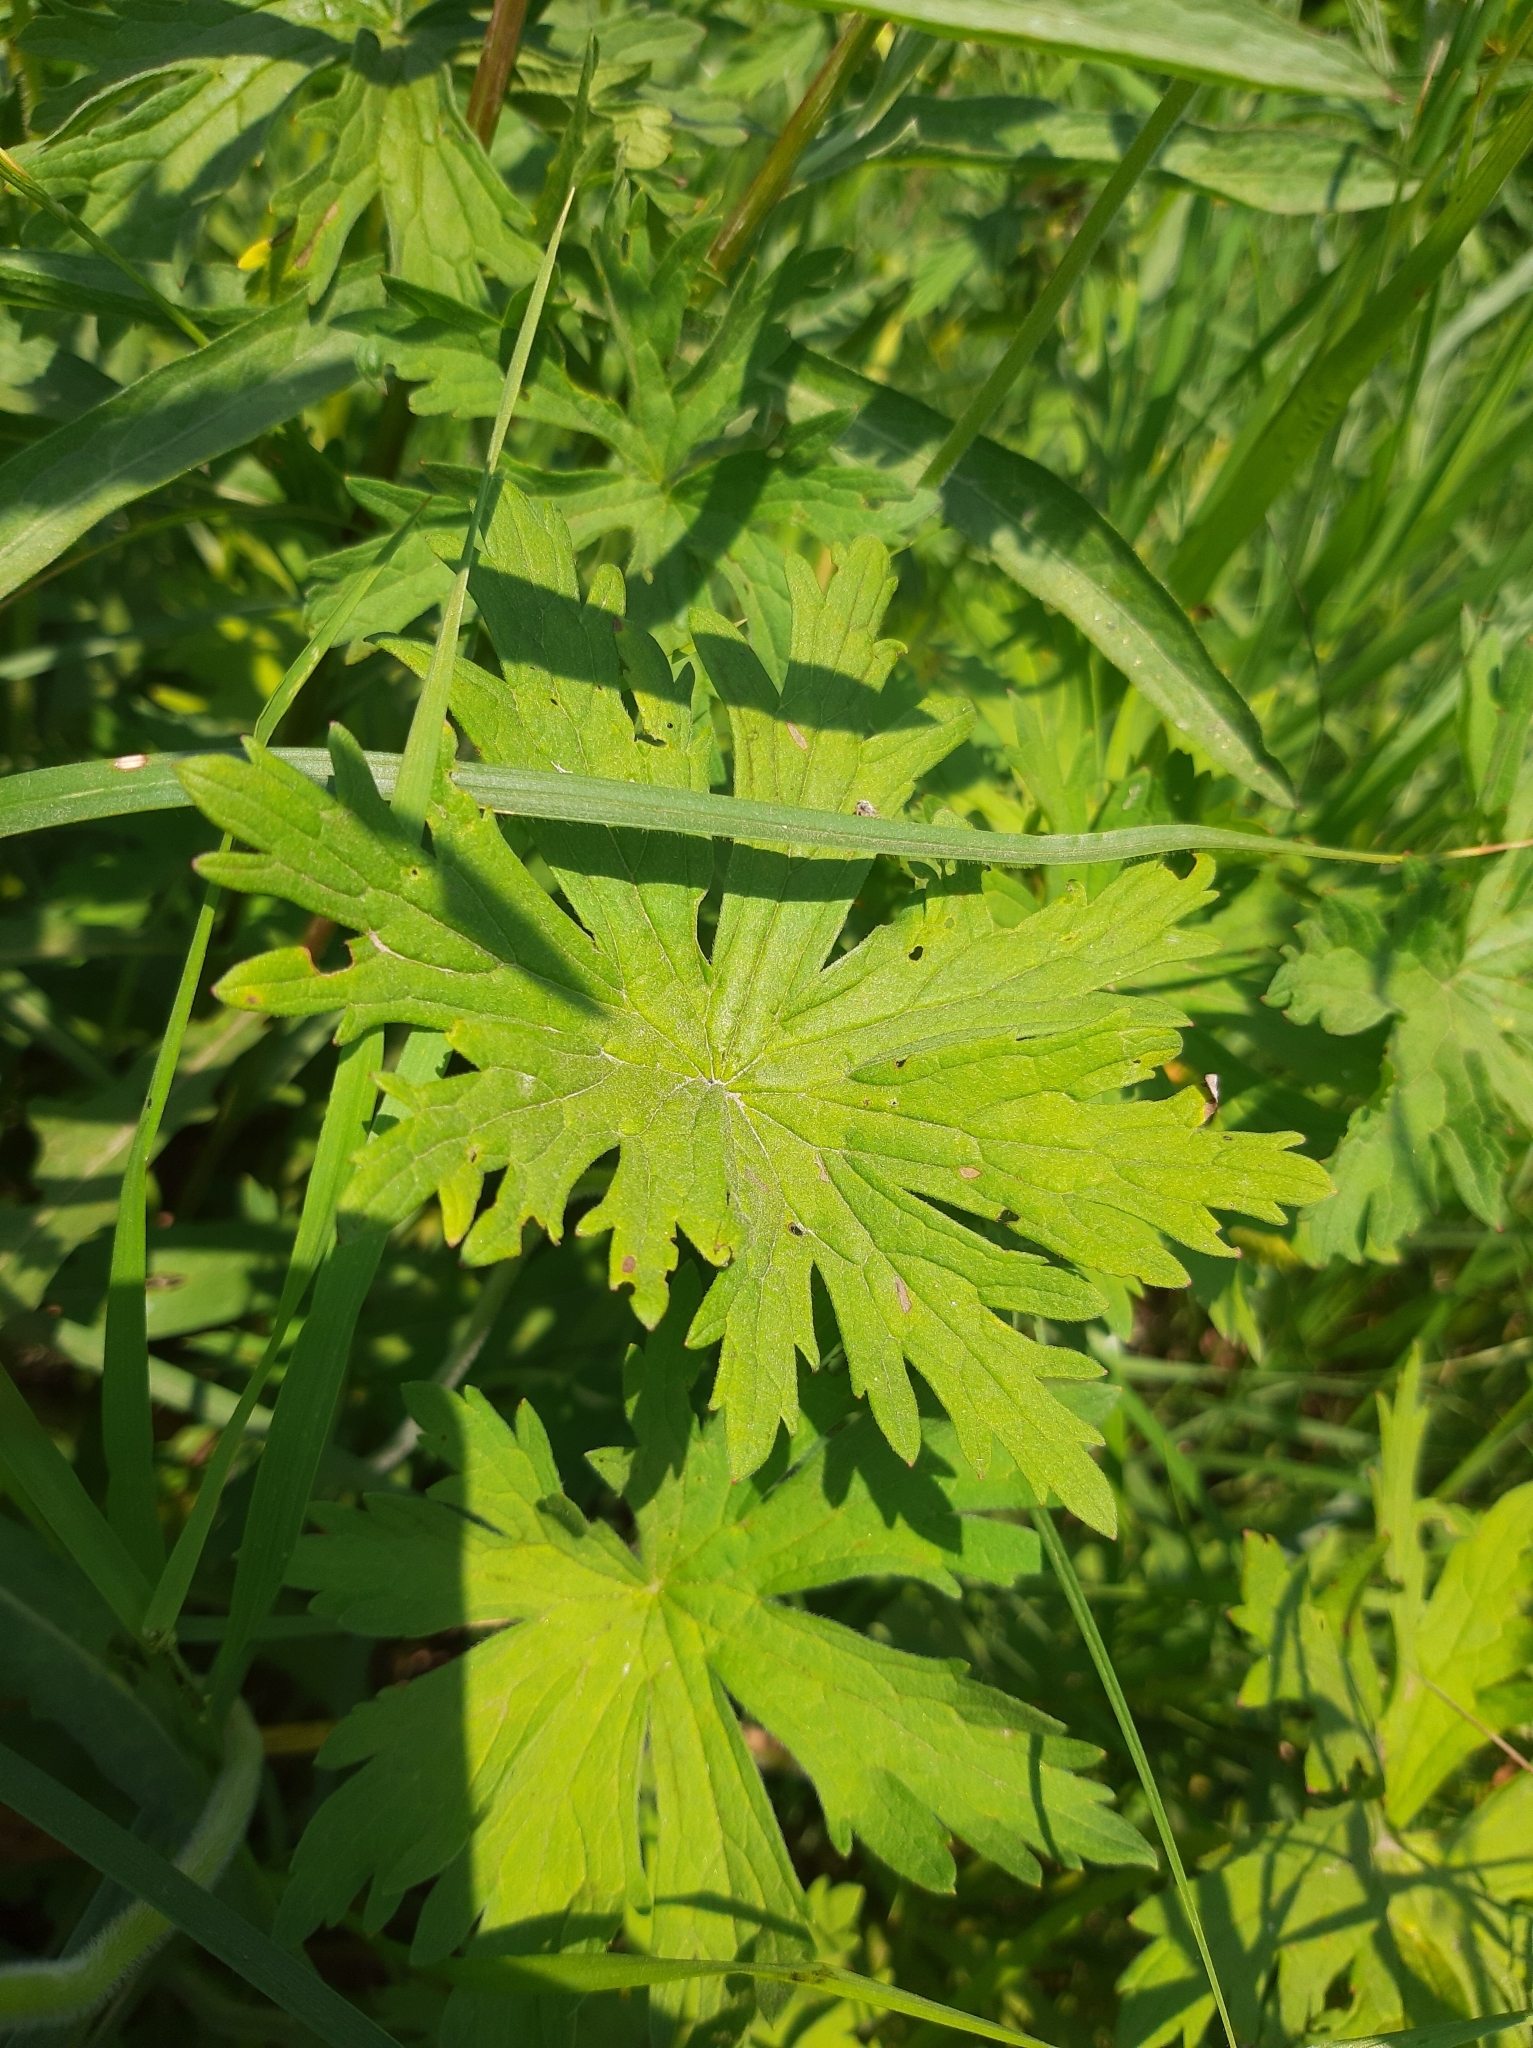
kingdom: Plantae
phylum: Tracheophyta
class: Magnoliopsida
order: Geraniales
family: Geraniaceae
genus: Geranium
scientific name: Geranium pratense
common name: Meadow crane's-bill
